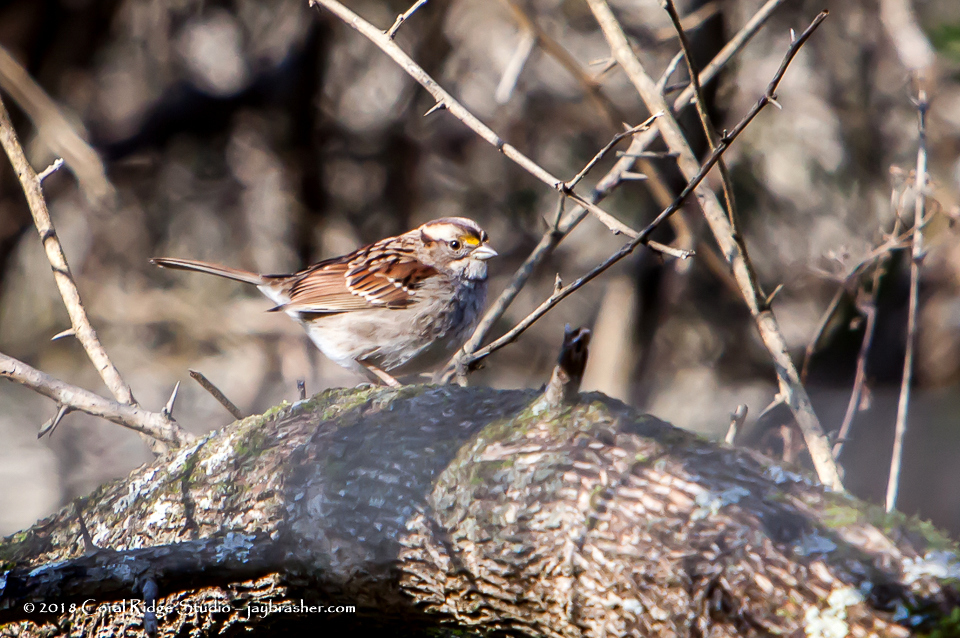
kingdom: Animalia
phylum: Chordata
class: Aves
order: Passeriformes
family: Passerellidae
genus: Zonotrichia
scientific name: Zonotrichia albicollis
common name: White-throated sparrow
